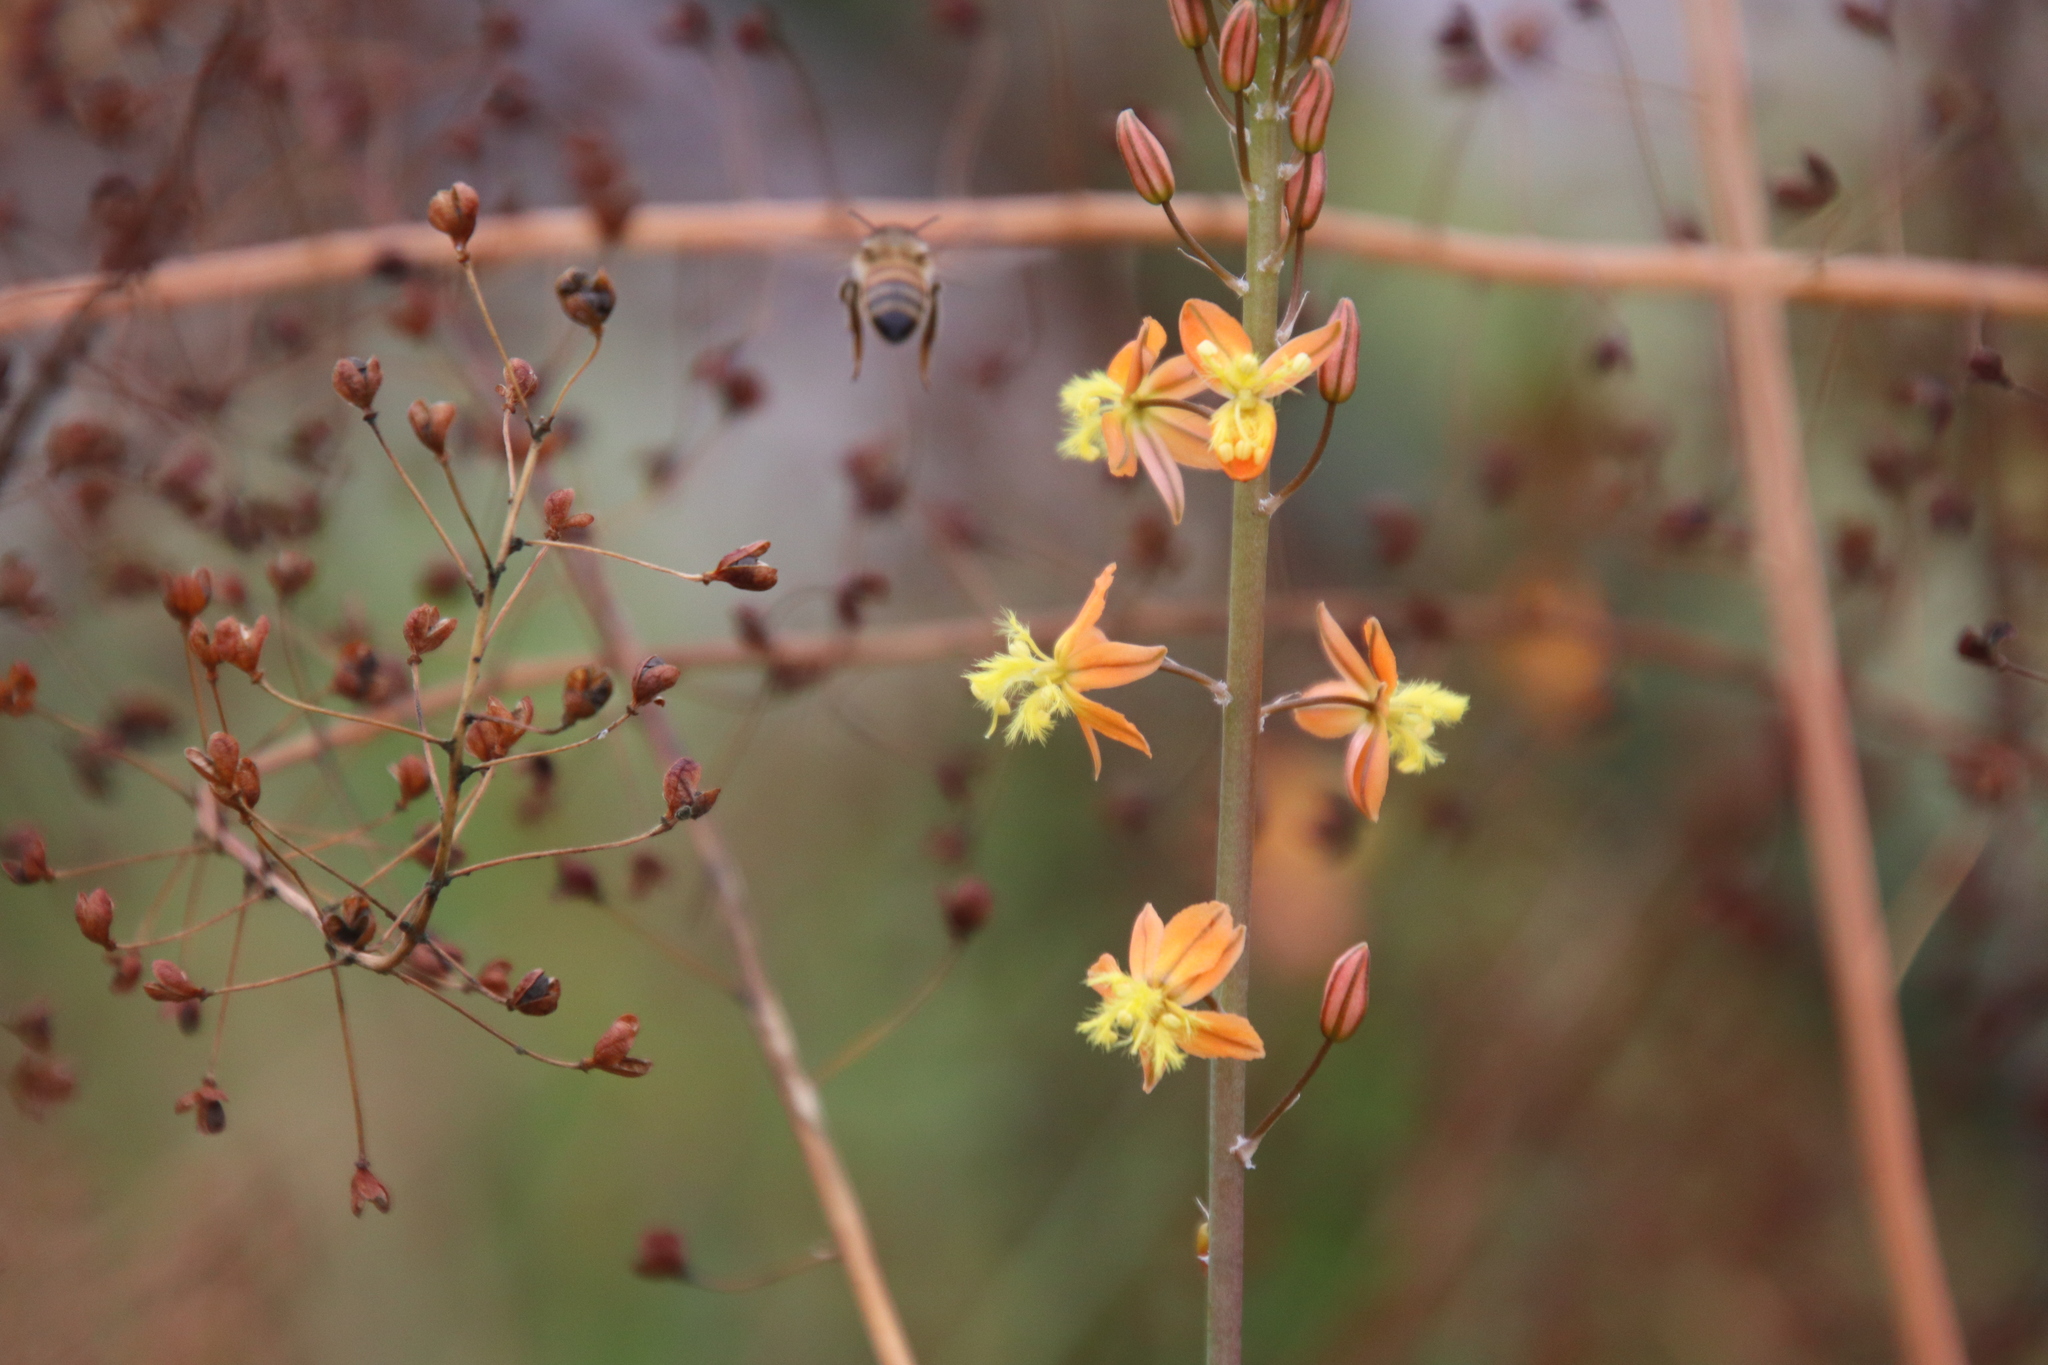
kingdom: Animalia
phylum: Arthropoda
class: Insecta
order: Hymenoptera
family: Apidae
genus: Apis
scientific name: Apis mellifera
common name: Honey bee
